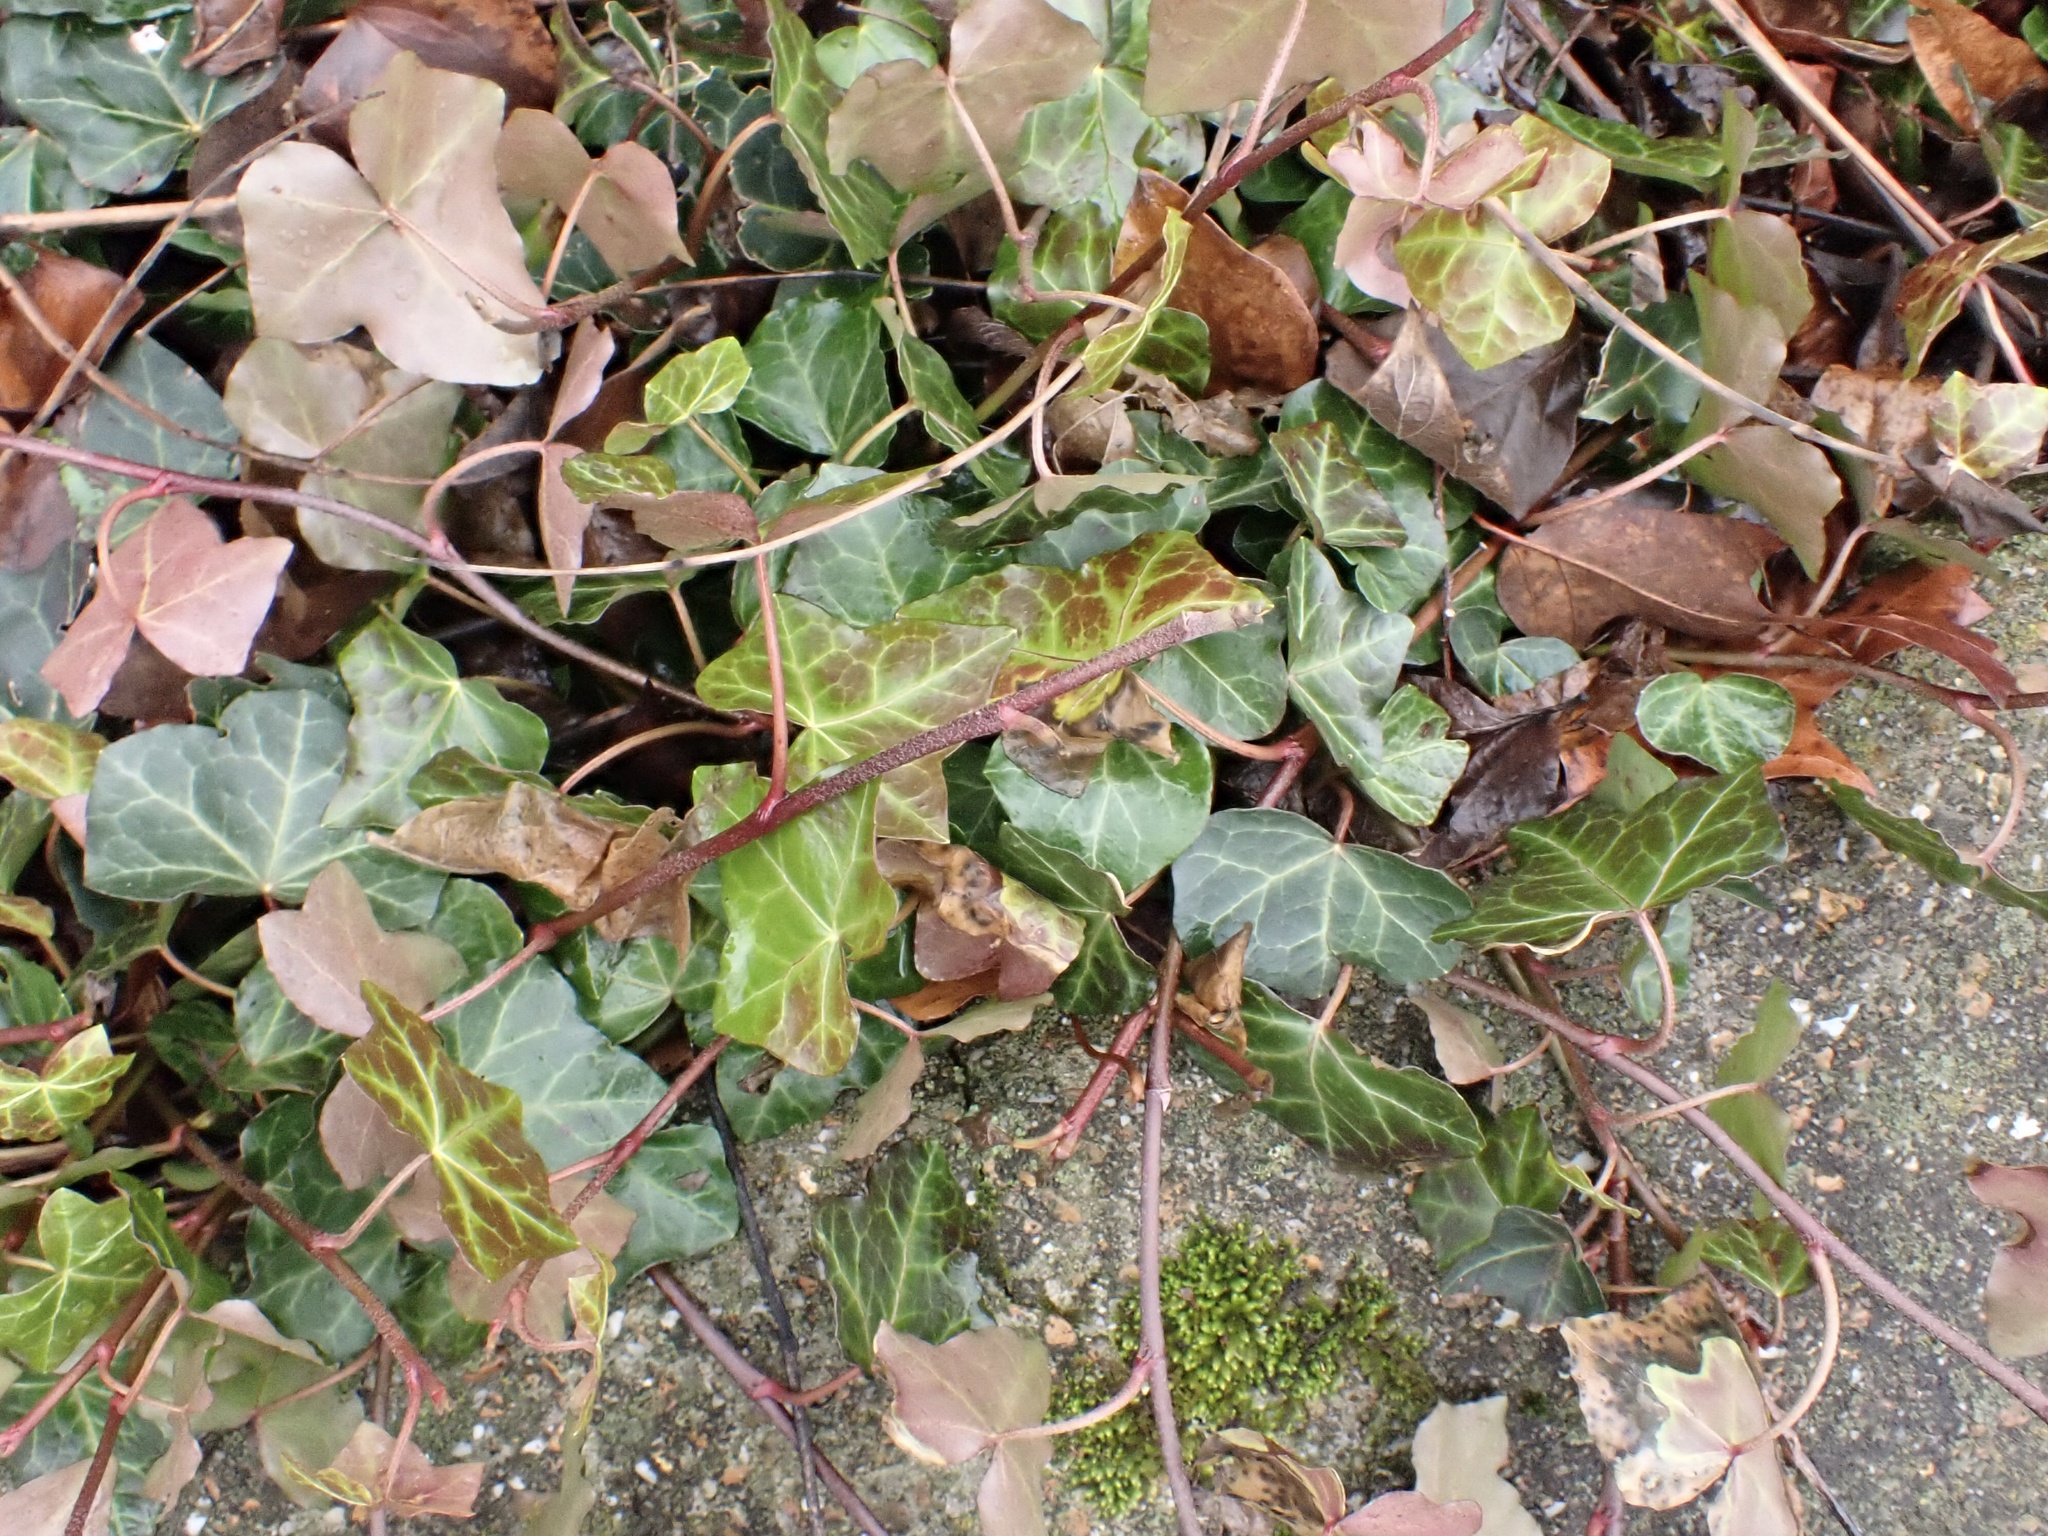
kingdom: Plantae
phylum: Tracheophyta
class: Magnoliopsida
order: Apiales
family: Araliaceae
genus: Hedera
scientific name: Hedera helix
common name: Ivy
